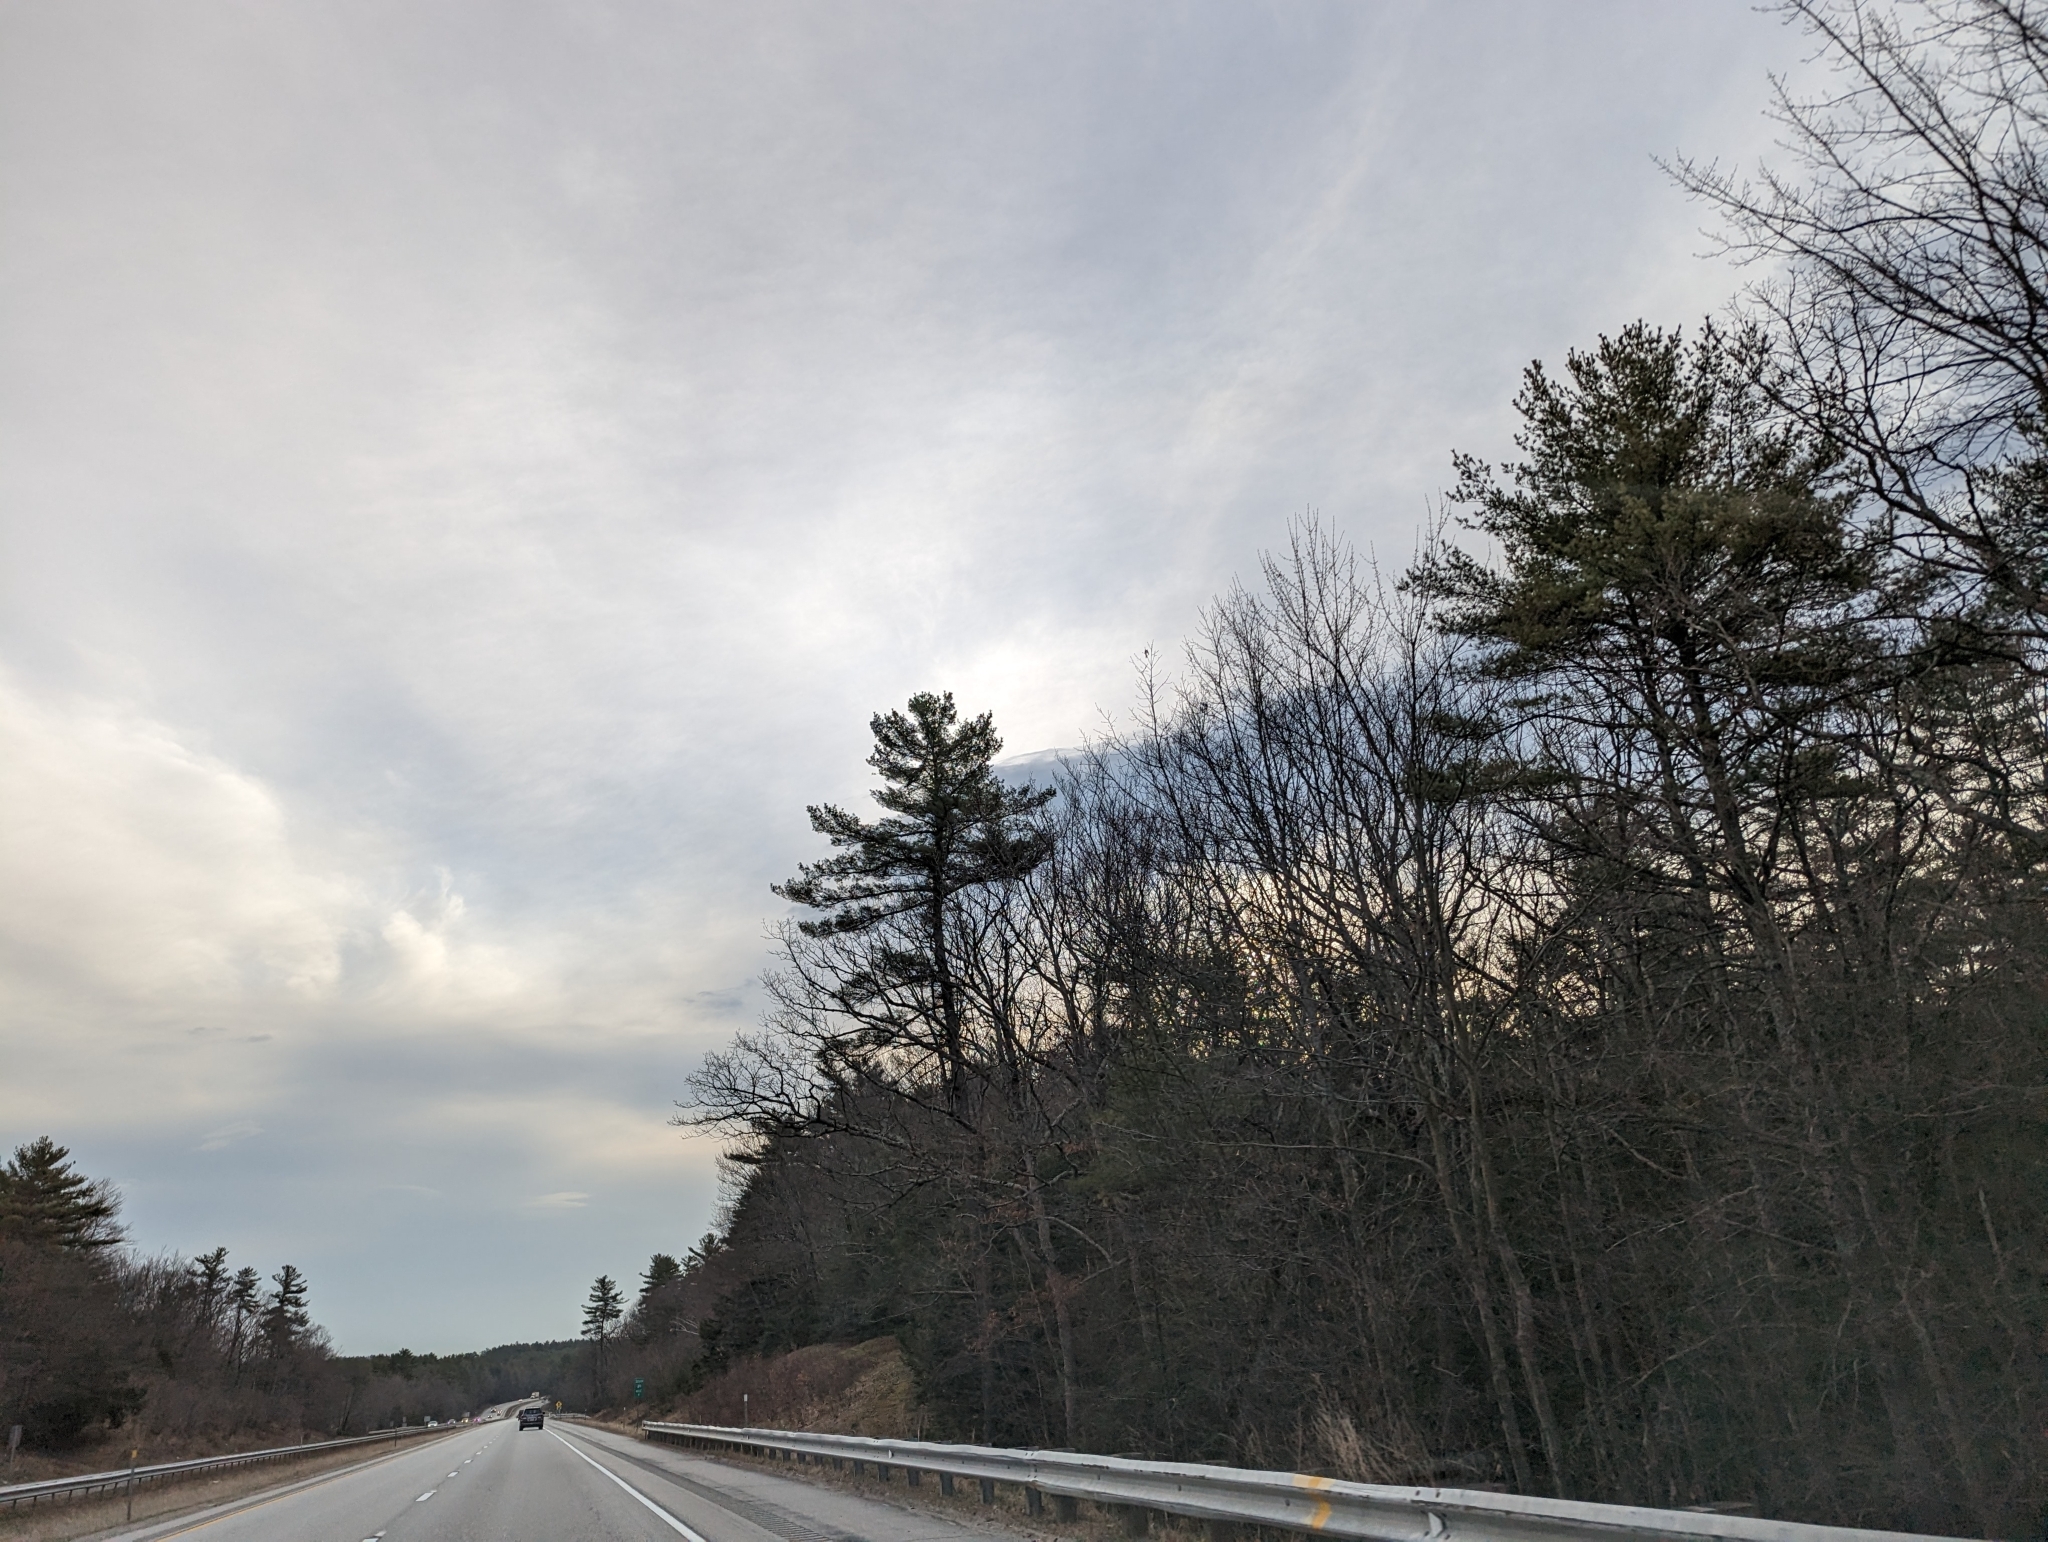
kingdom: Plantae
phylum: Tracheophyta
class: Pinopsida
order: Pinales
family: Pinaceae
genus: Pinus
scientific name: Pinus strobus
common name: Weymouth pine
